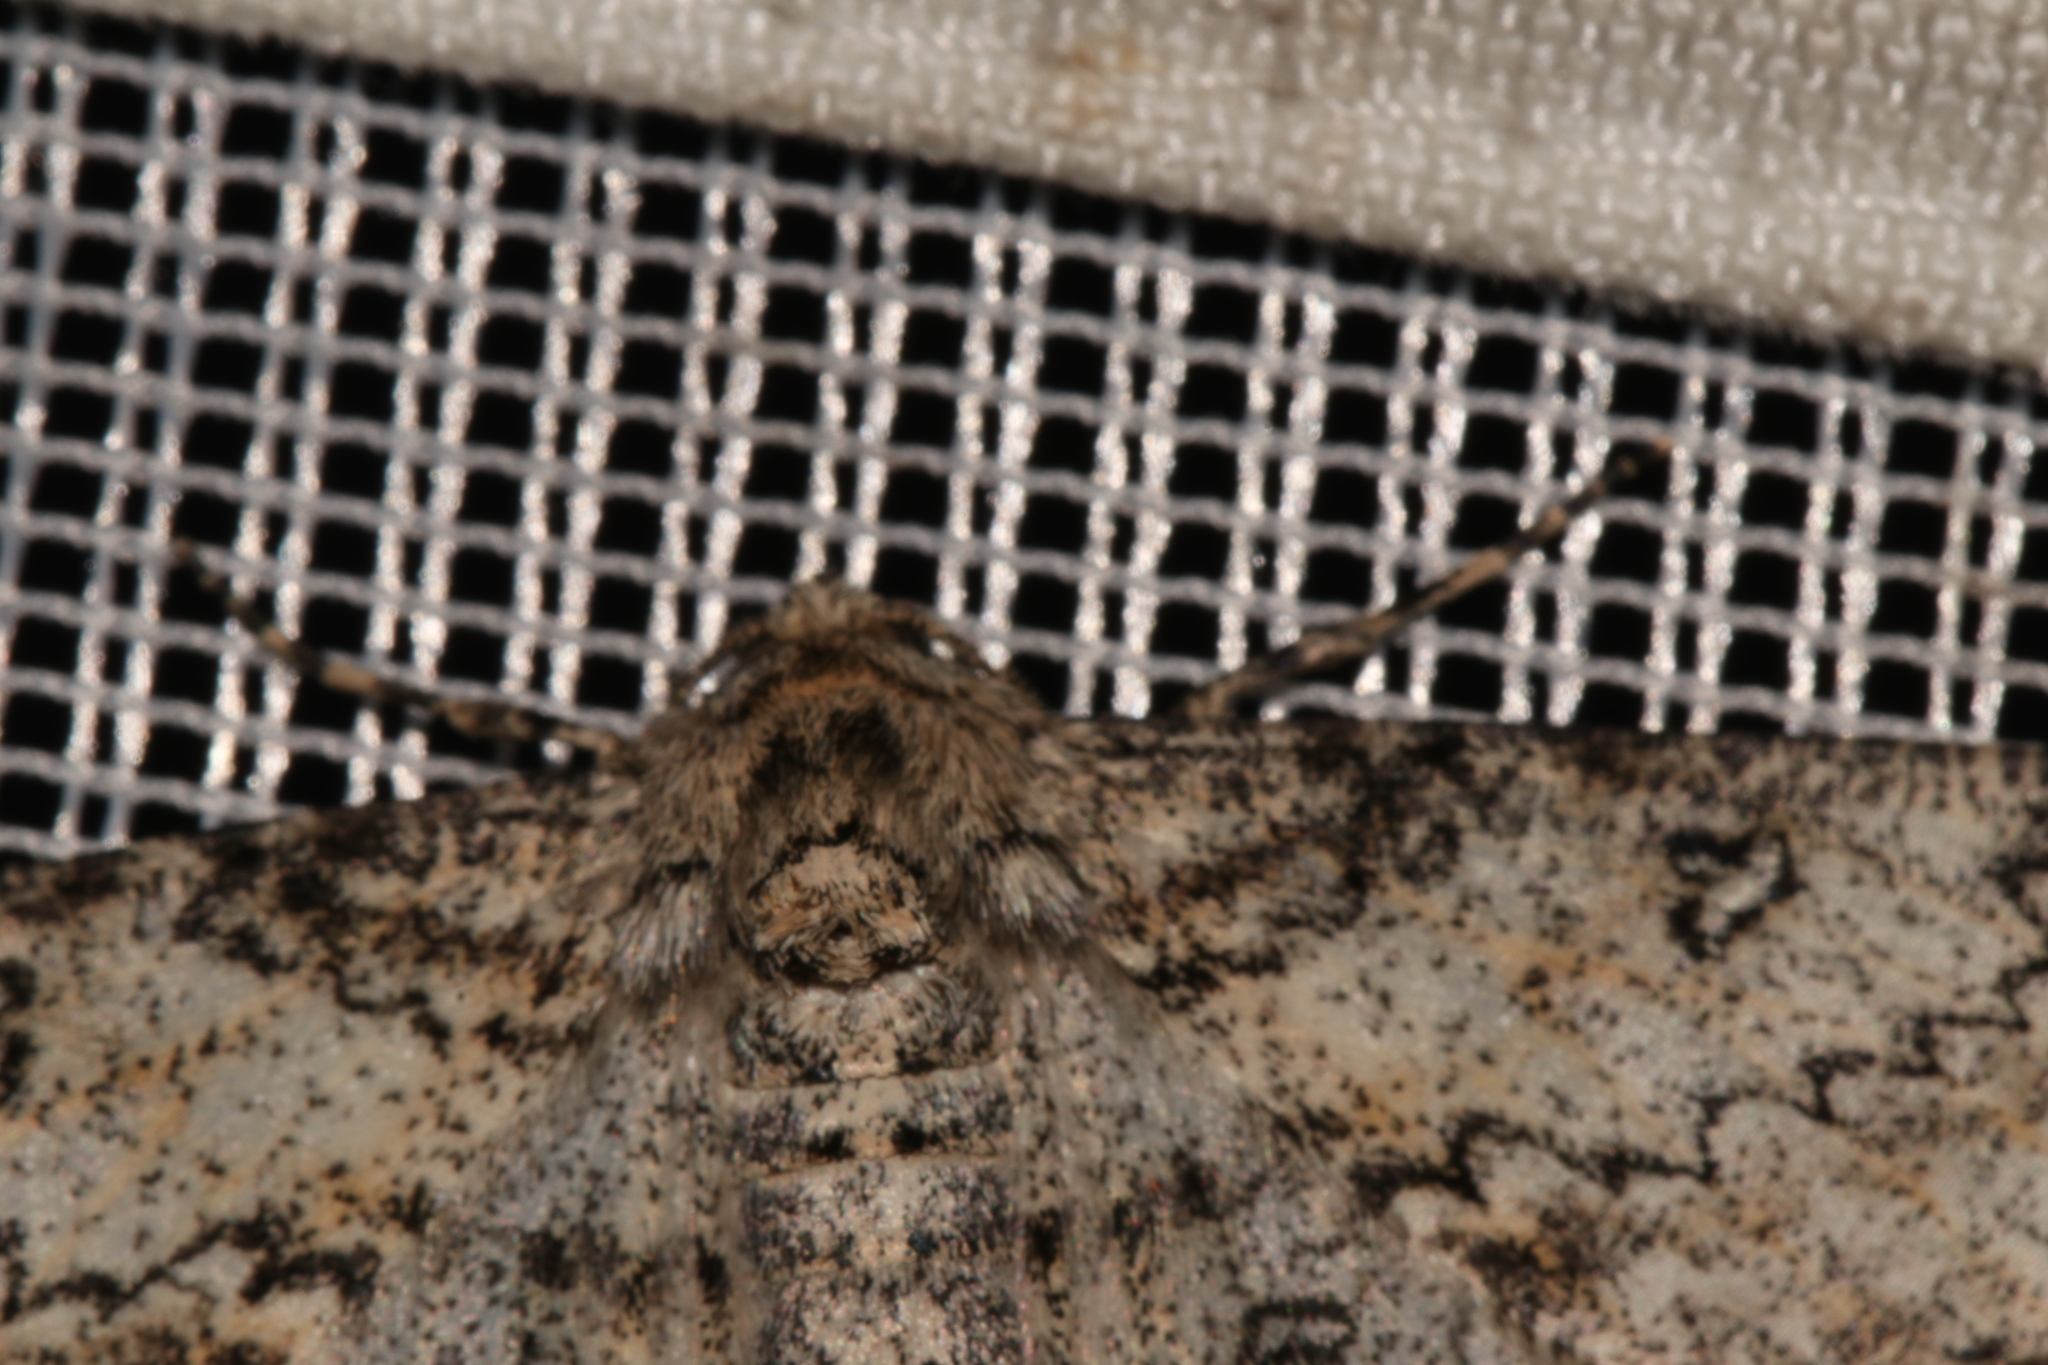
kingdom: Animalia
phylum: Arthropoda
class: Insecta
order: Lepidoptera
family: Geometridae
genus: Ascotis
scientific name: Ascotis selenaria
